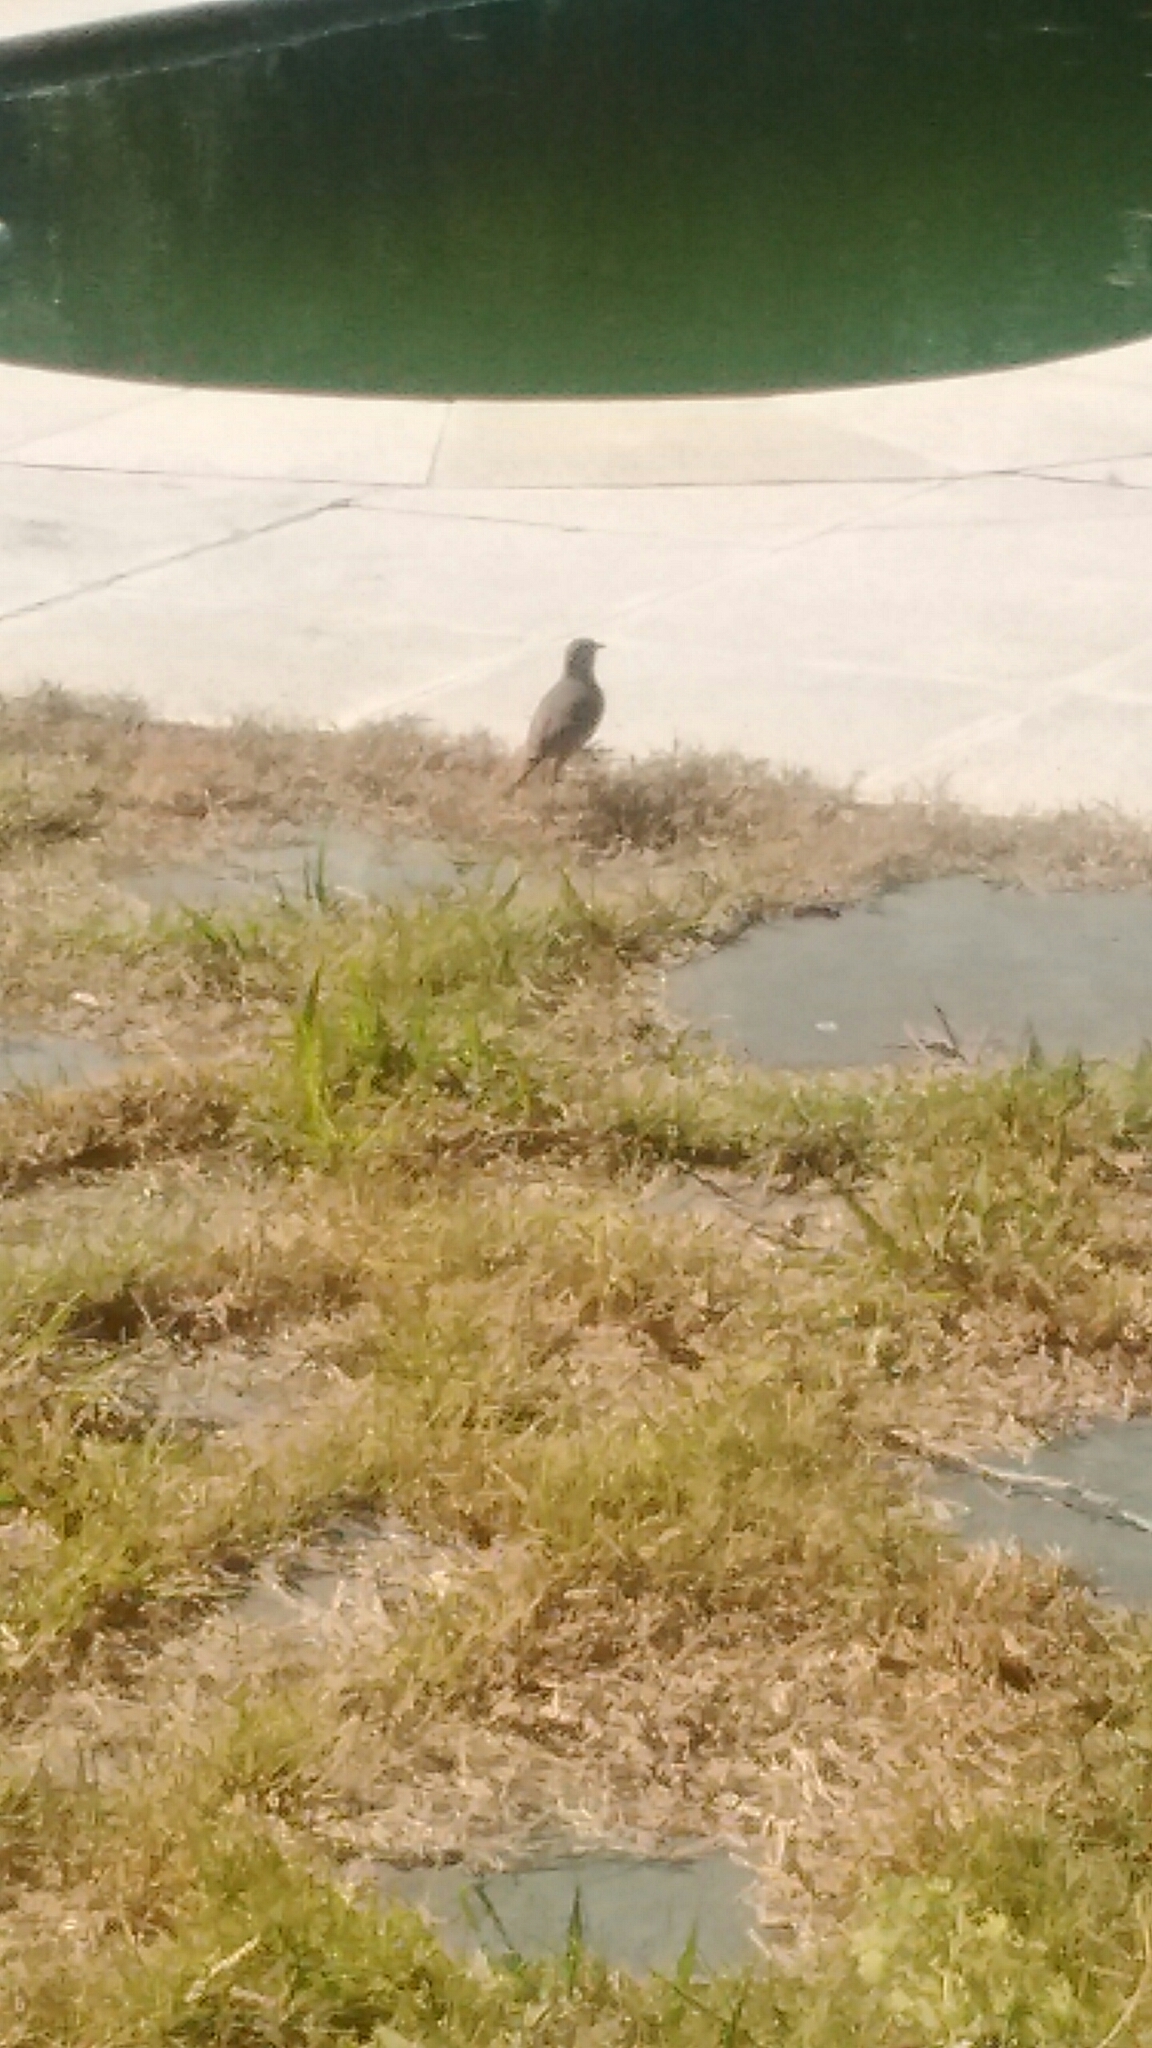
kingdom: Animalia
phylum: Chordata
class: Aves
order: Passeriformes
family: Furnariidae
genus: Furnarius
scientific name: Furnarius rufus
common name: Rufous hornero
